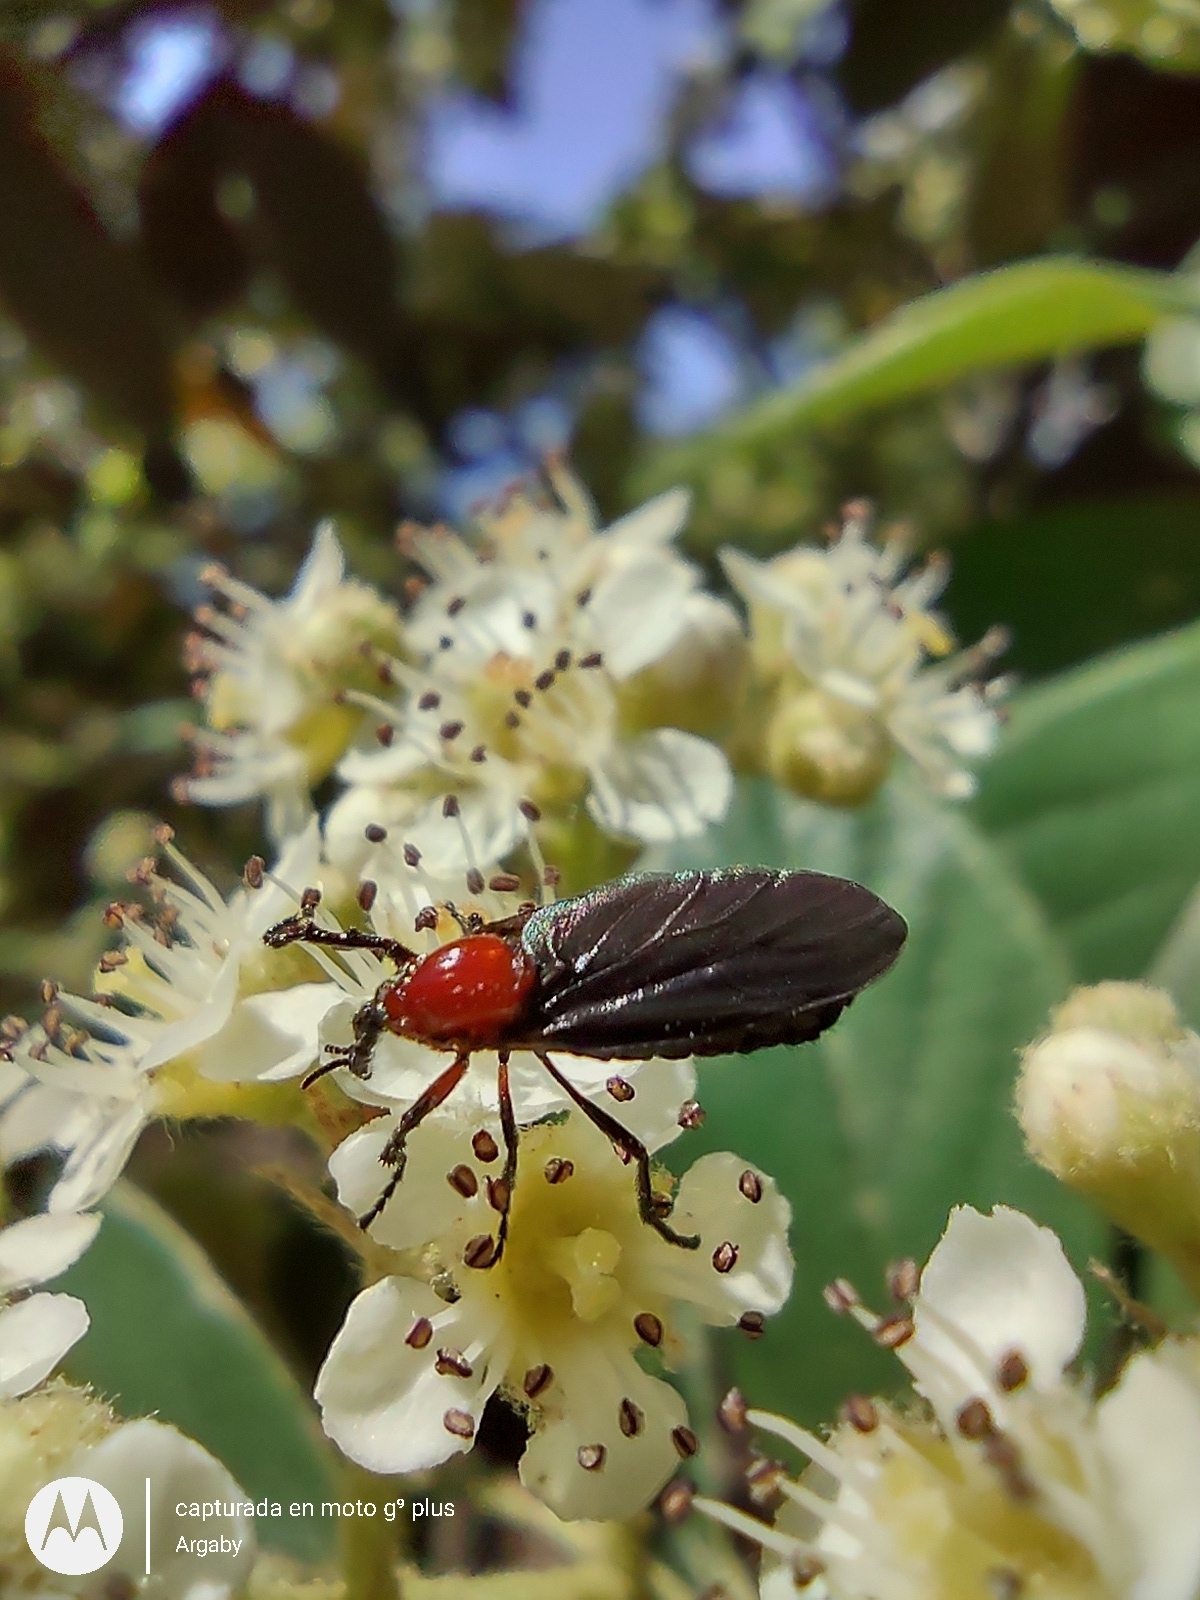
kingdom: Animalia
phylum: Arthropoda
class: Insecta
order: Diptera
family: Bibionidae
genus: Dilophus
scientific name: Dilophus pectoralis
